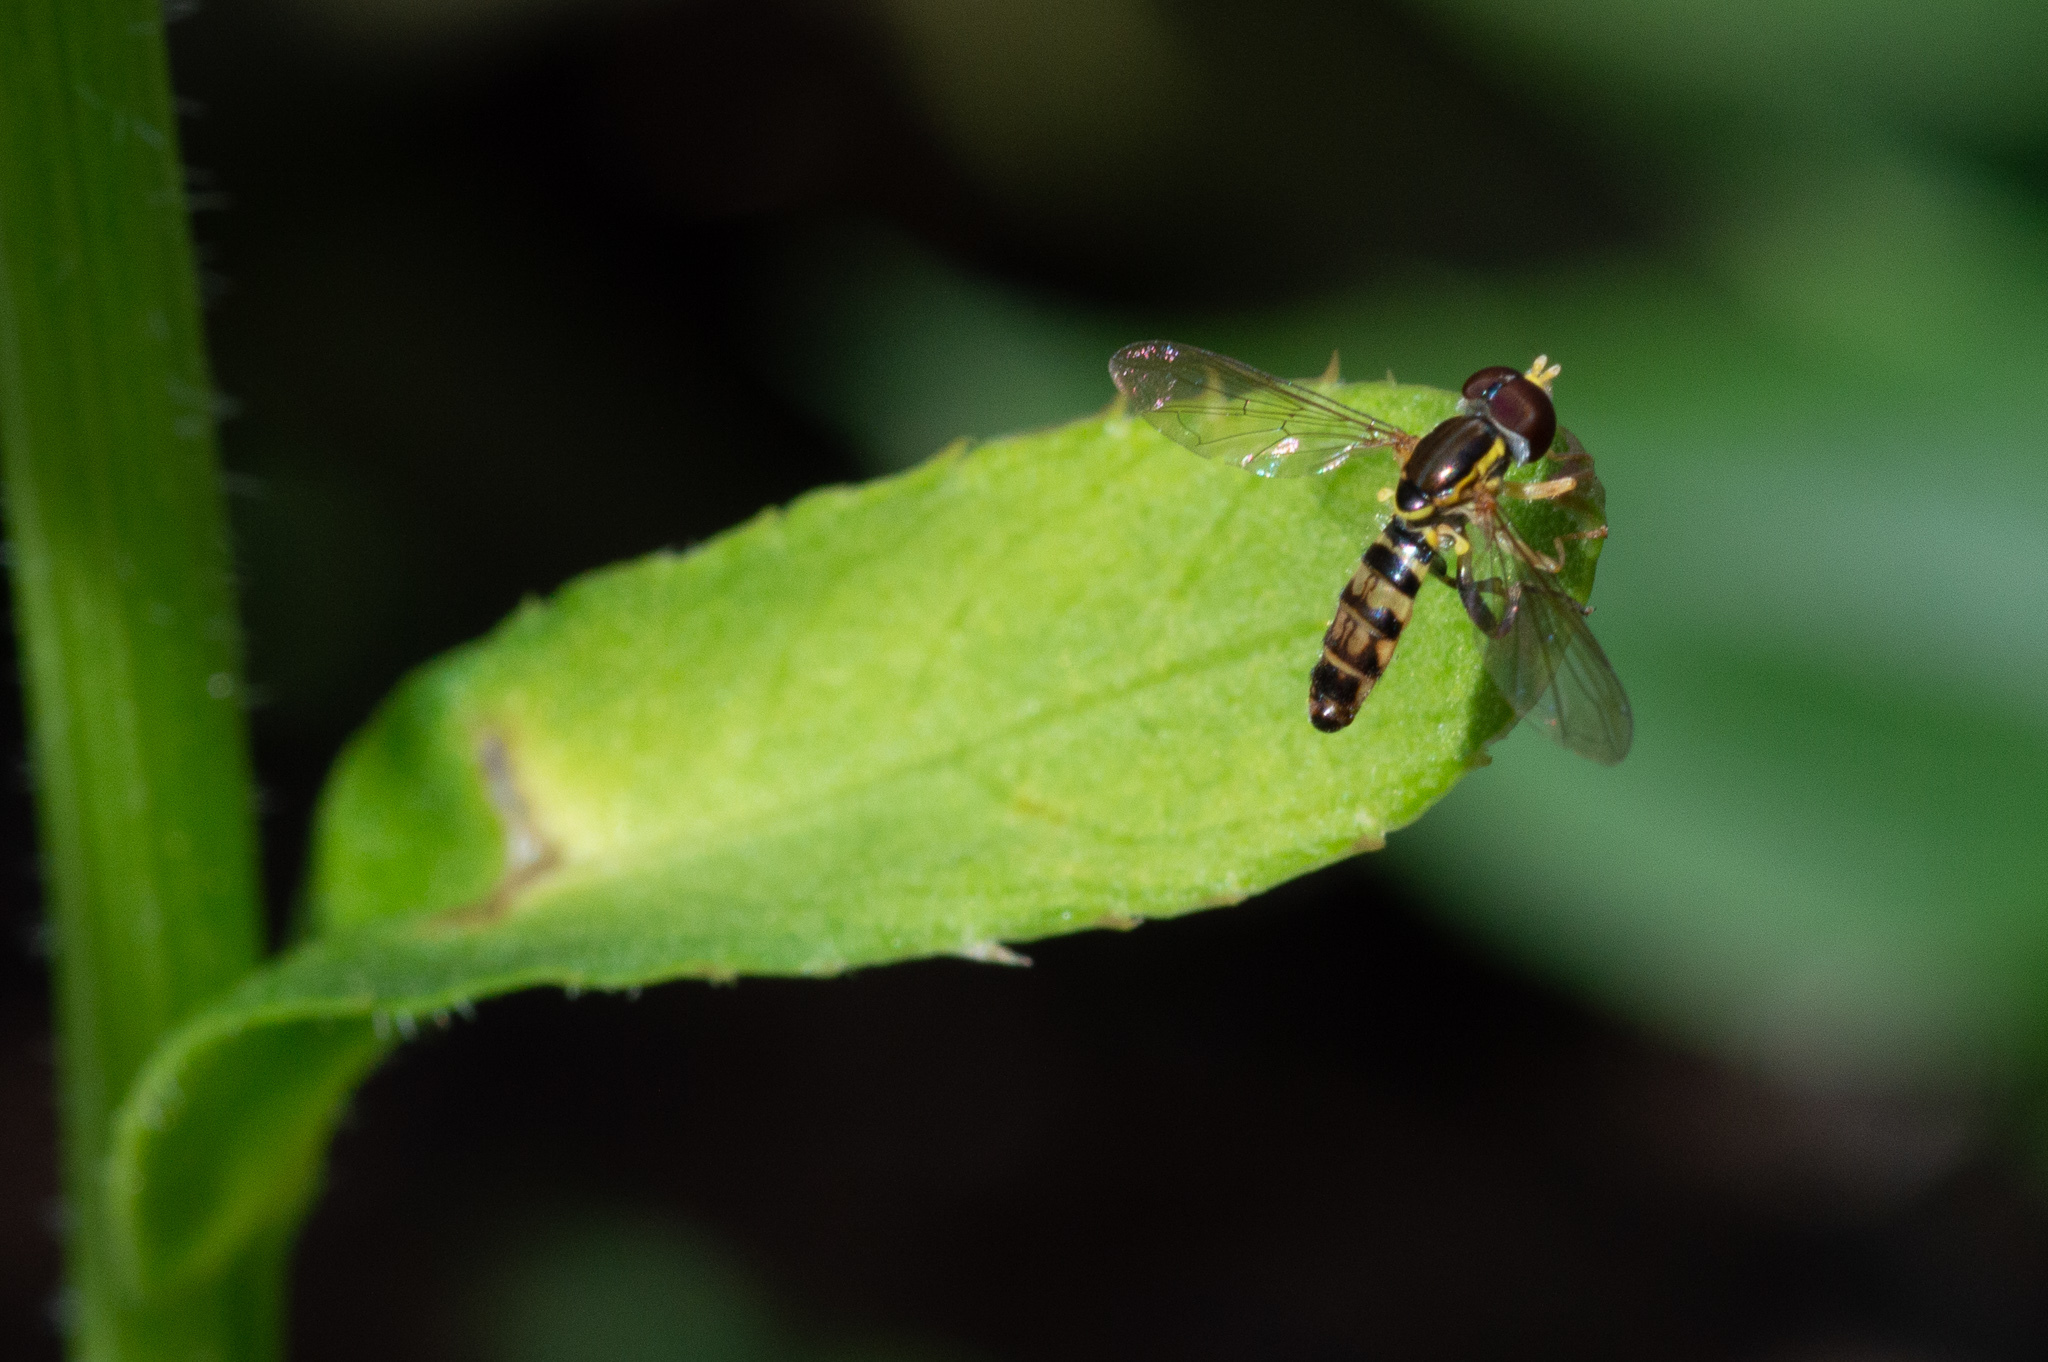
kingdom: Animalia
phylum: Arthropoda
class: Insecta
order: Diptera
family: Syrphidae
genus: Toxomerus
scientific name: Toxomerus geminatus
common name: Eastern calligrapher
